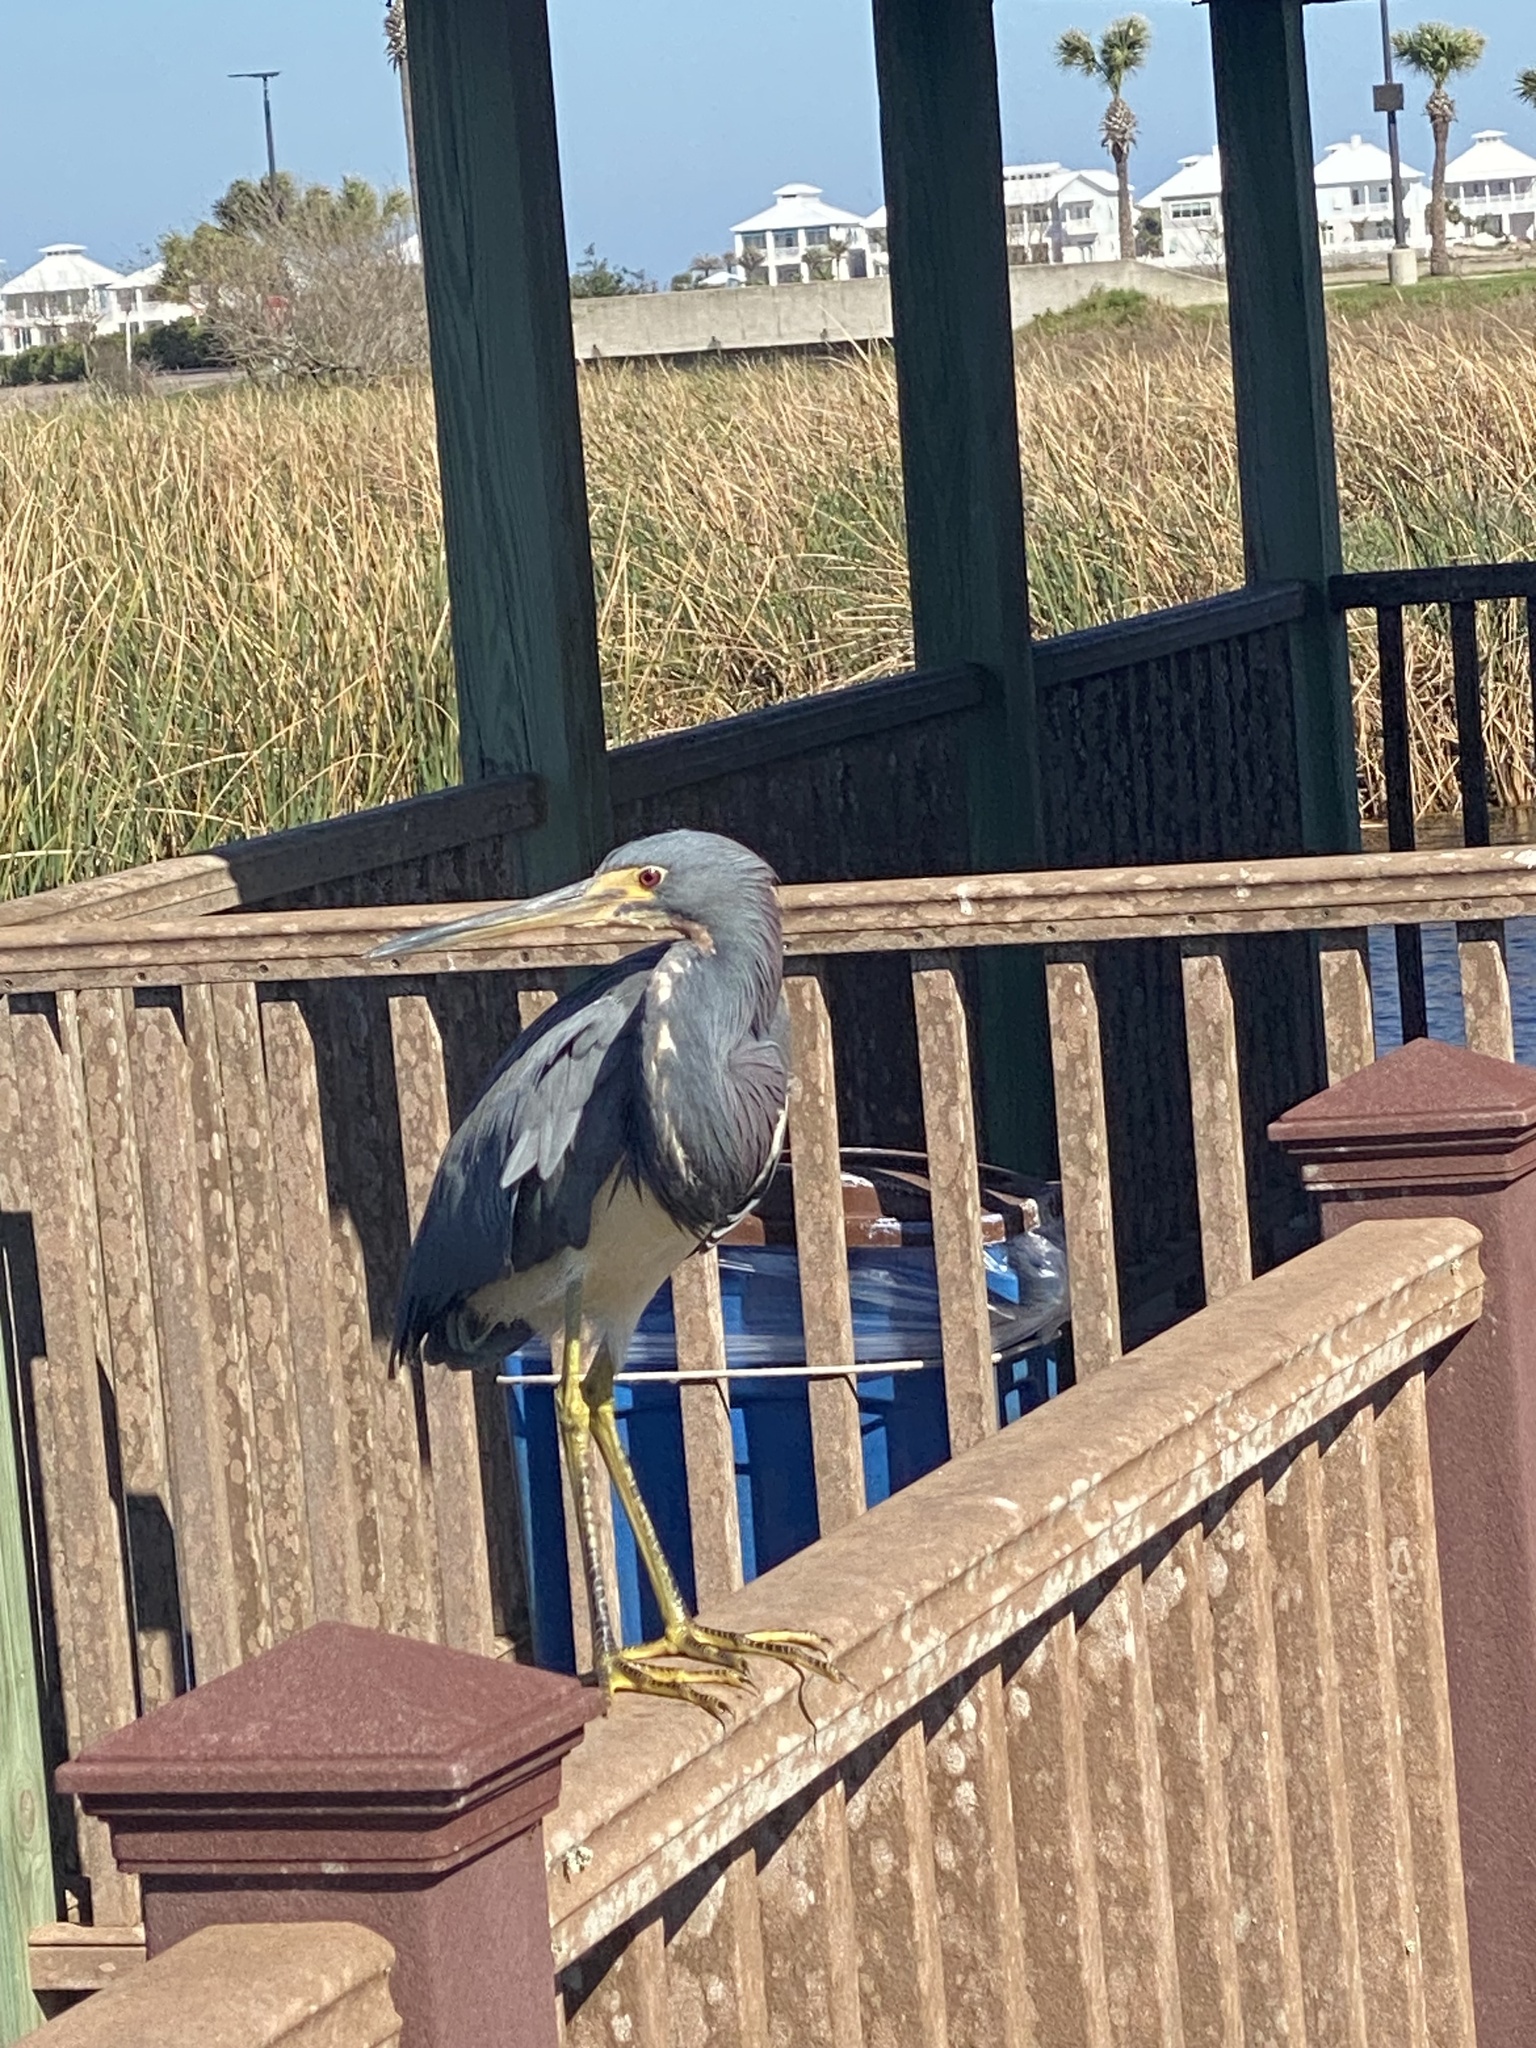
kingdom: Animalia
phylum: Chordata
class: Aves
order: Pelecaniformes
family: Ardeidae
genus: Egretta
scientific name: Egretta tricolor
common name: Tricolored heron
